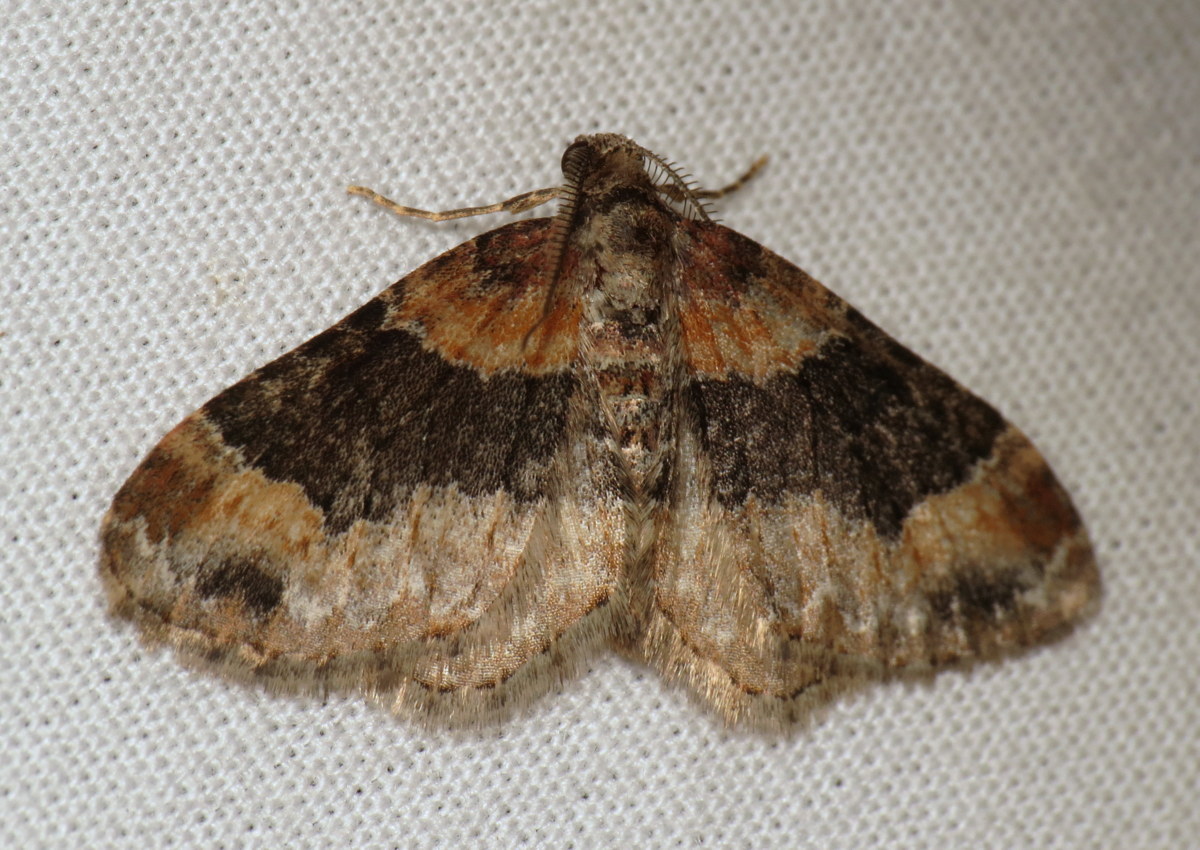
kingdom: Animalia
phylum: Arthropoda
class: Insecta
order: Lepidoptera
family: Geometridae
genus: Xanthorhoe
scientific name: Xanthorhoe ferrugata
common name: Dark-barred twin-spot carpet
